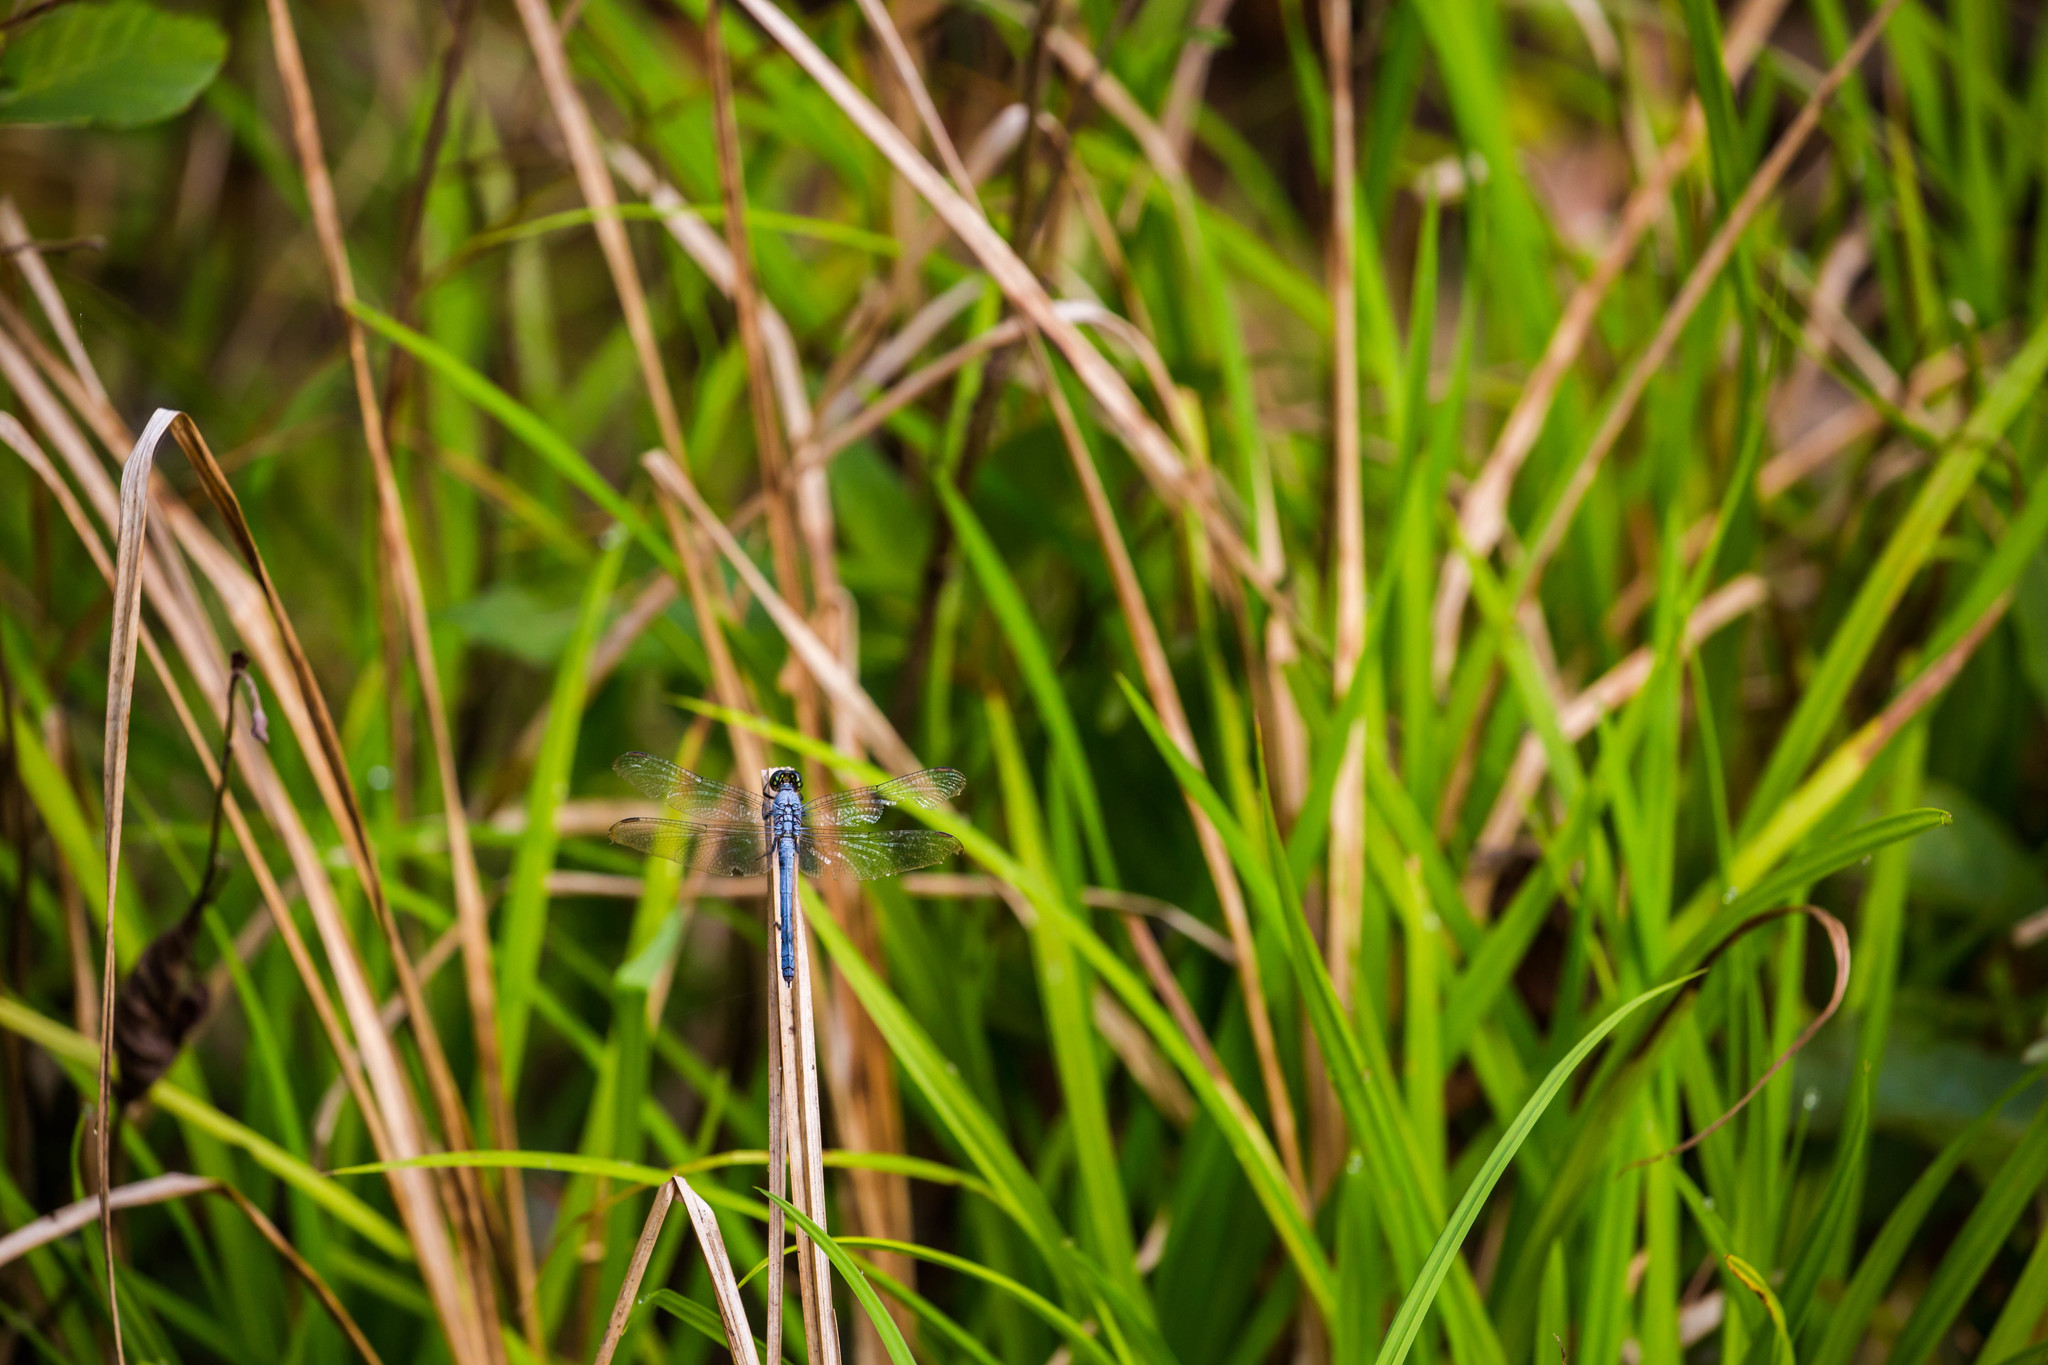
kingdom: Animalia
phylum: Arthropoda
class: Insecta
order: Odonata
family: Libellulidae
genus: Erythemis
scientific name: Erythemis simplicicollis
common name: Eastern pondhawk
